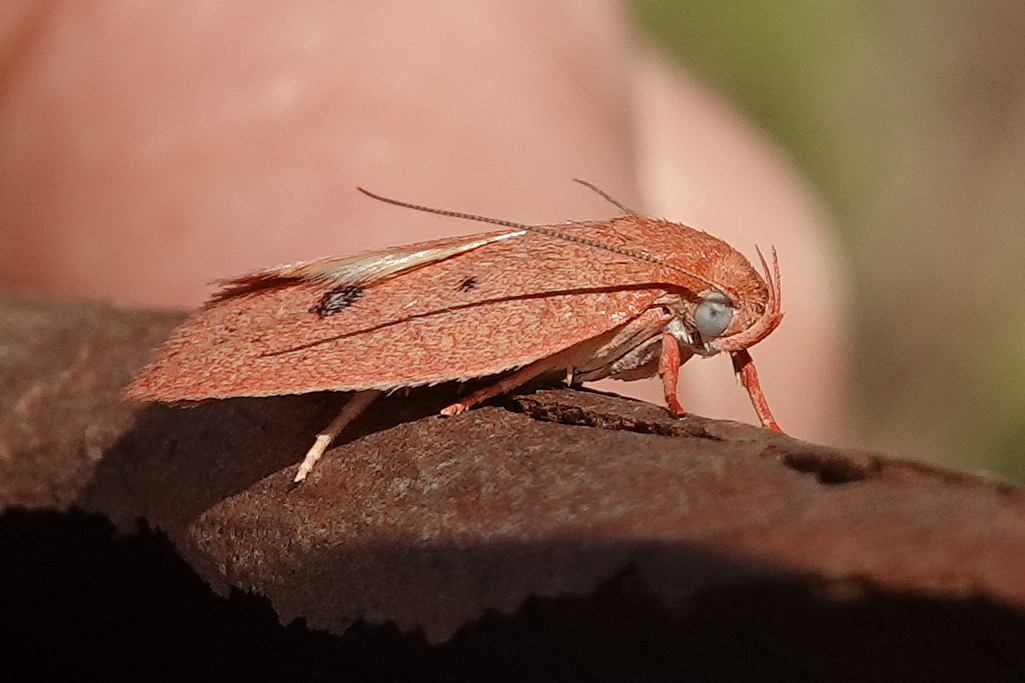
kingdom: Animalia
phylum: Arthropoda
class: Insecta
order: Lepidoptera
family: Oecophoridae
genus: Garrha
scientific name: Garrha pudica
